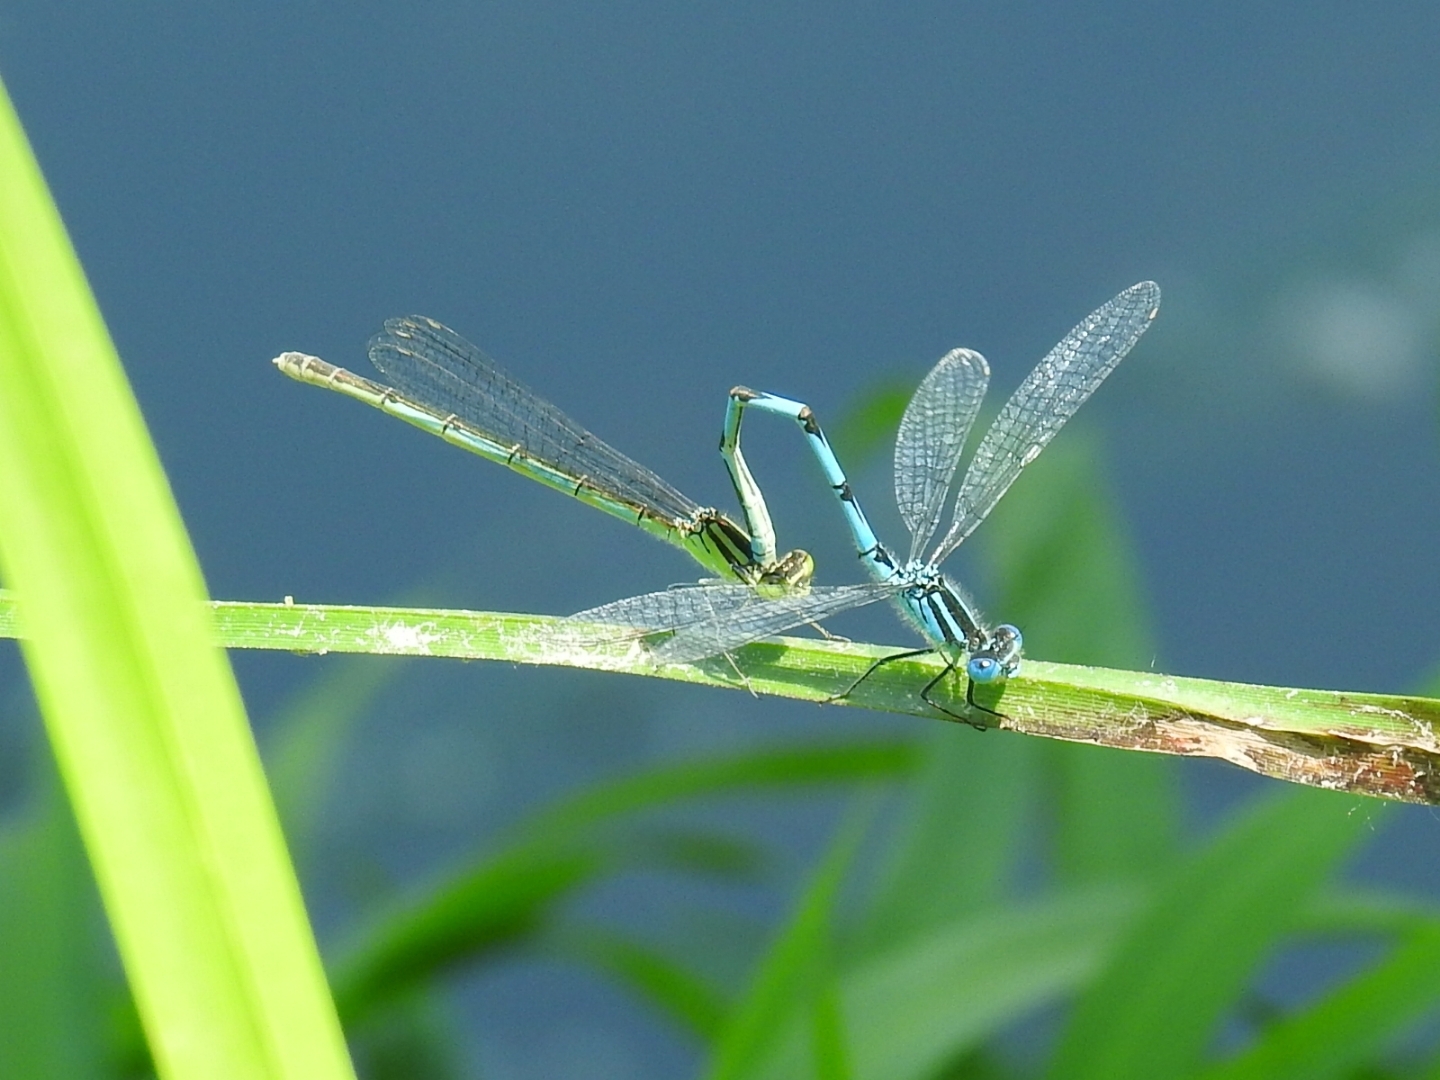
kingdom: Animalia
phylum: Arthropoda
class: Insecta
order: Odonata
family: Coenagrionidae
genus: Erythromma
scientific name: Erythromma lindenii
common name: Blue-eye
